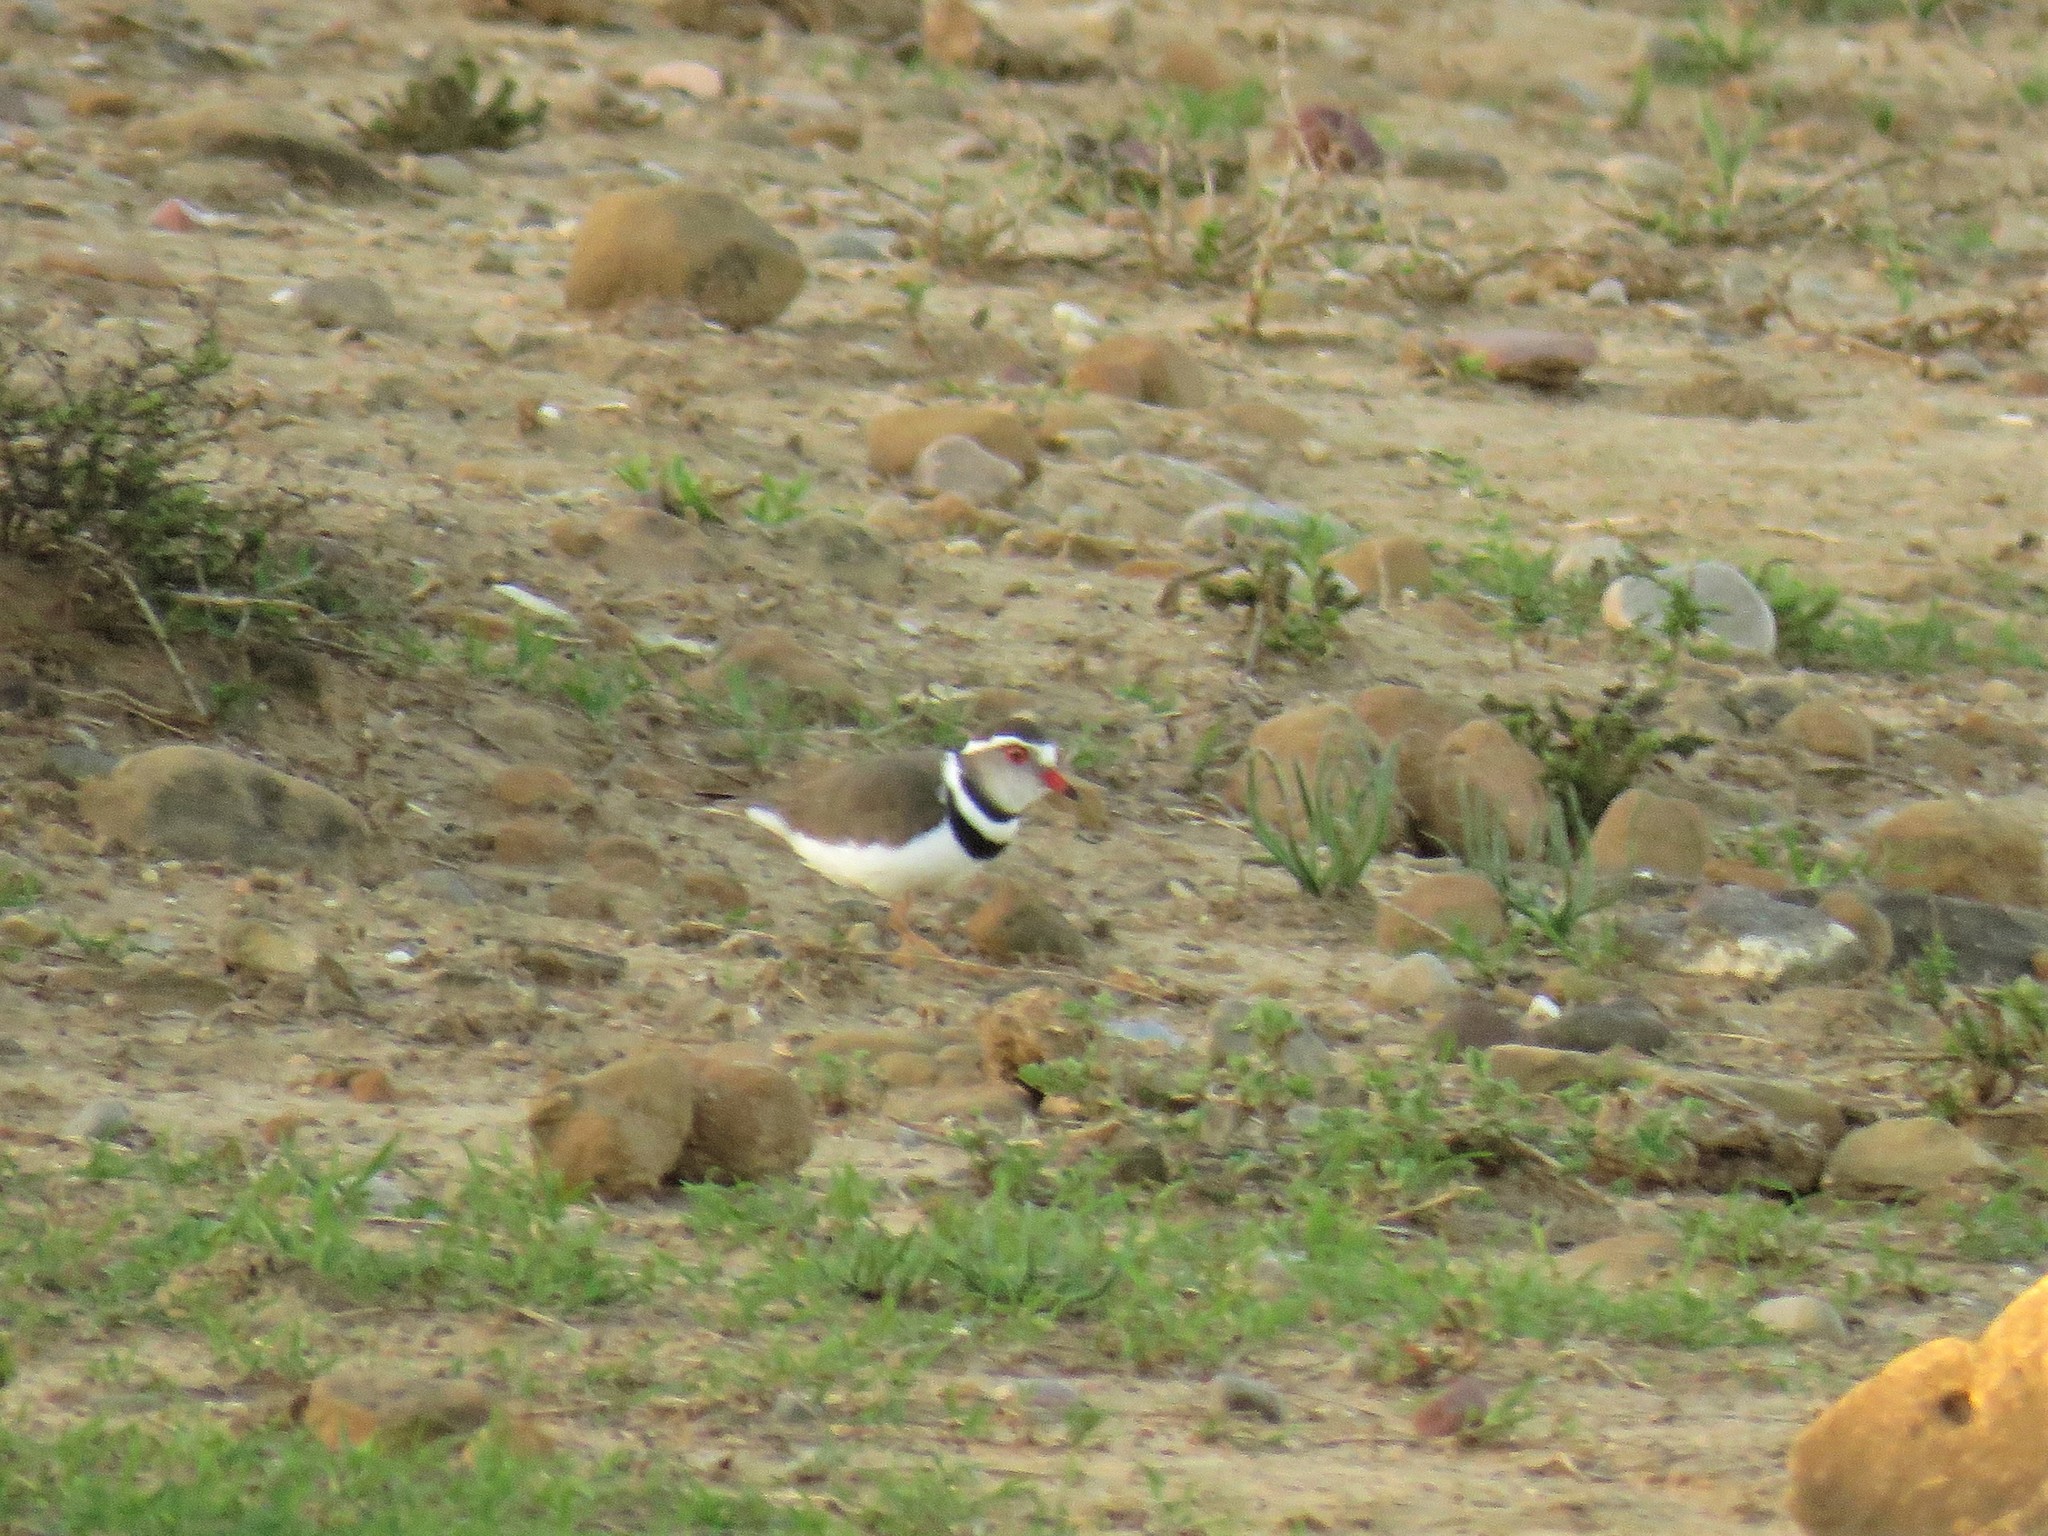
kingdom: Animalia
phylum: Chordata
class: Aves
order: Charadriiformes
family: Charadriidae
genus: Charadrius
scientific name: Charadrius tricollaris
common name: Three-banded plover
